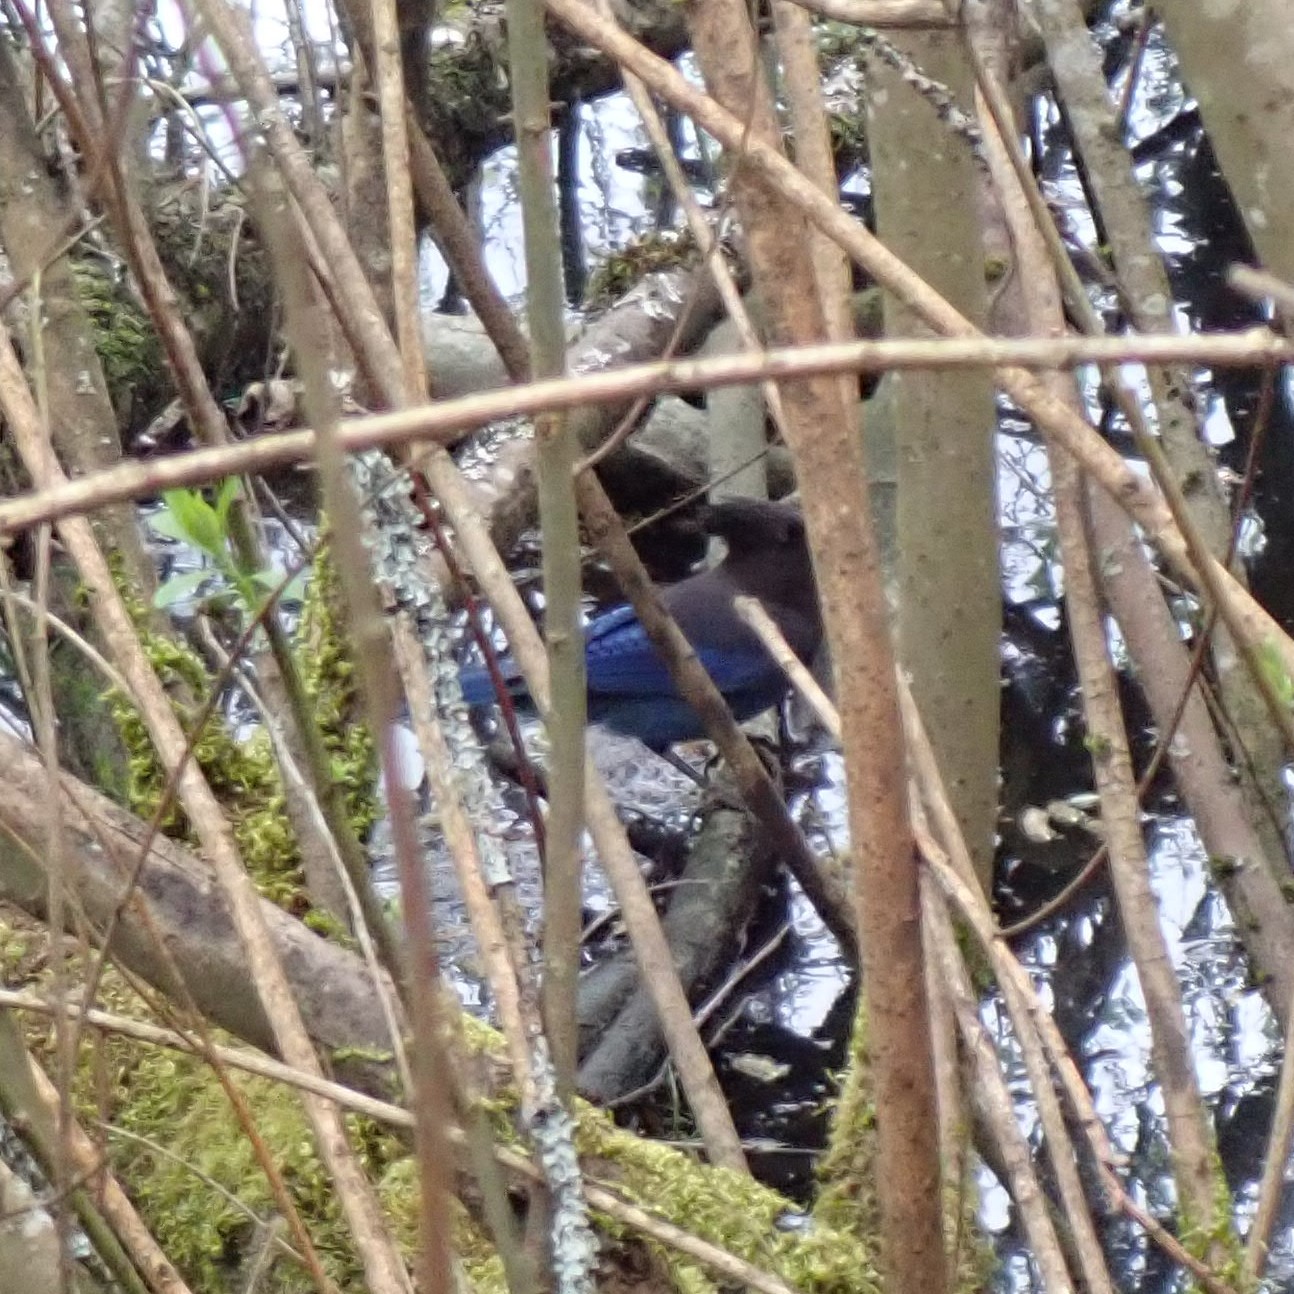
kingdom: Animalia
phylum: Chordata
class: Aves
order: Passeriformes
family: Corvidae
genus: Cyanocitta
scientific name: Cyanocitta stelleri
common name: Steller's jay
